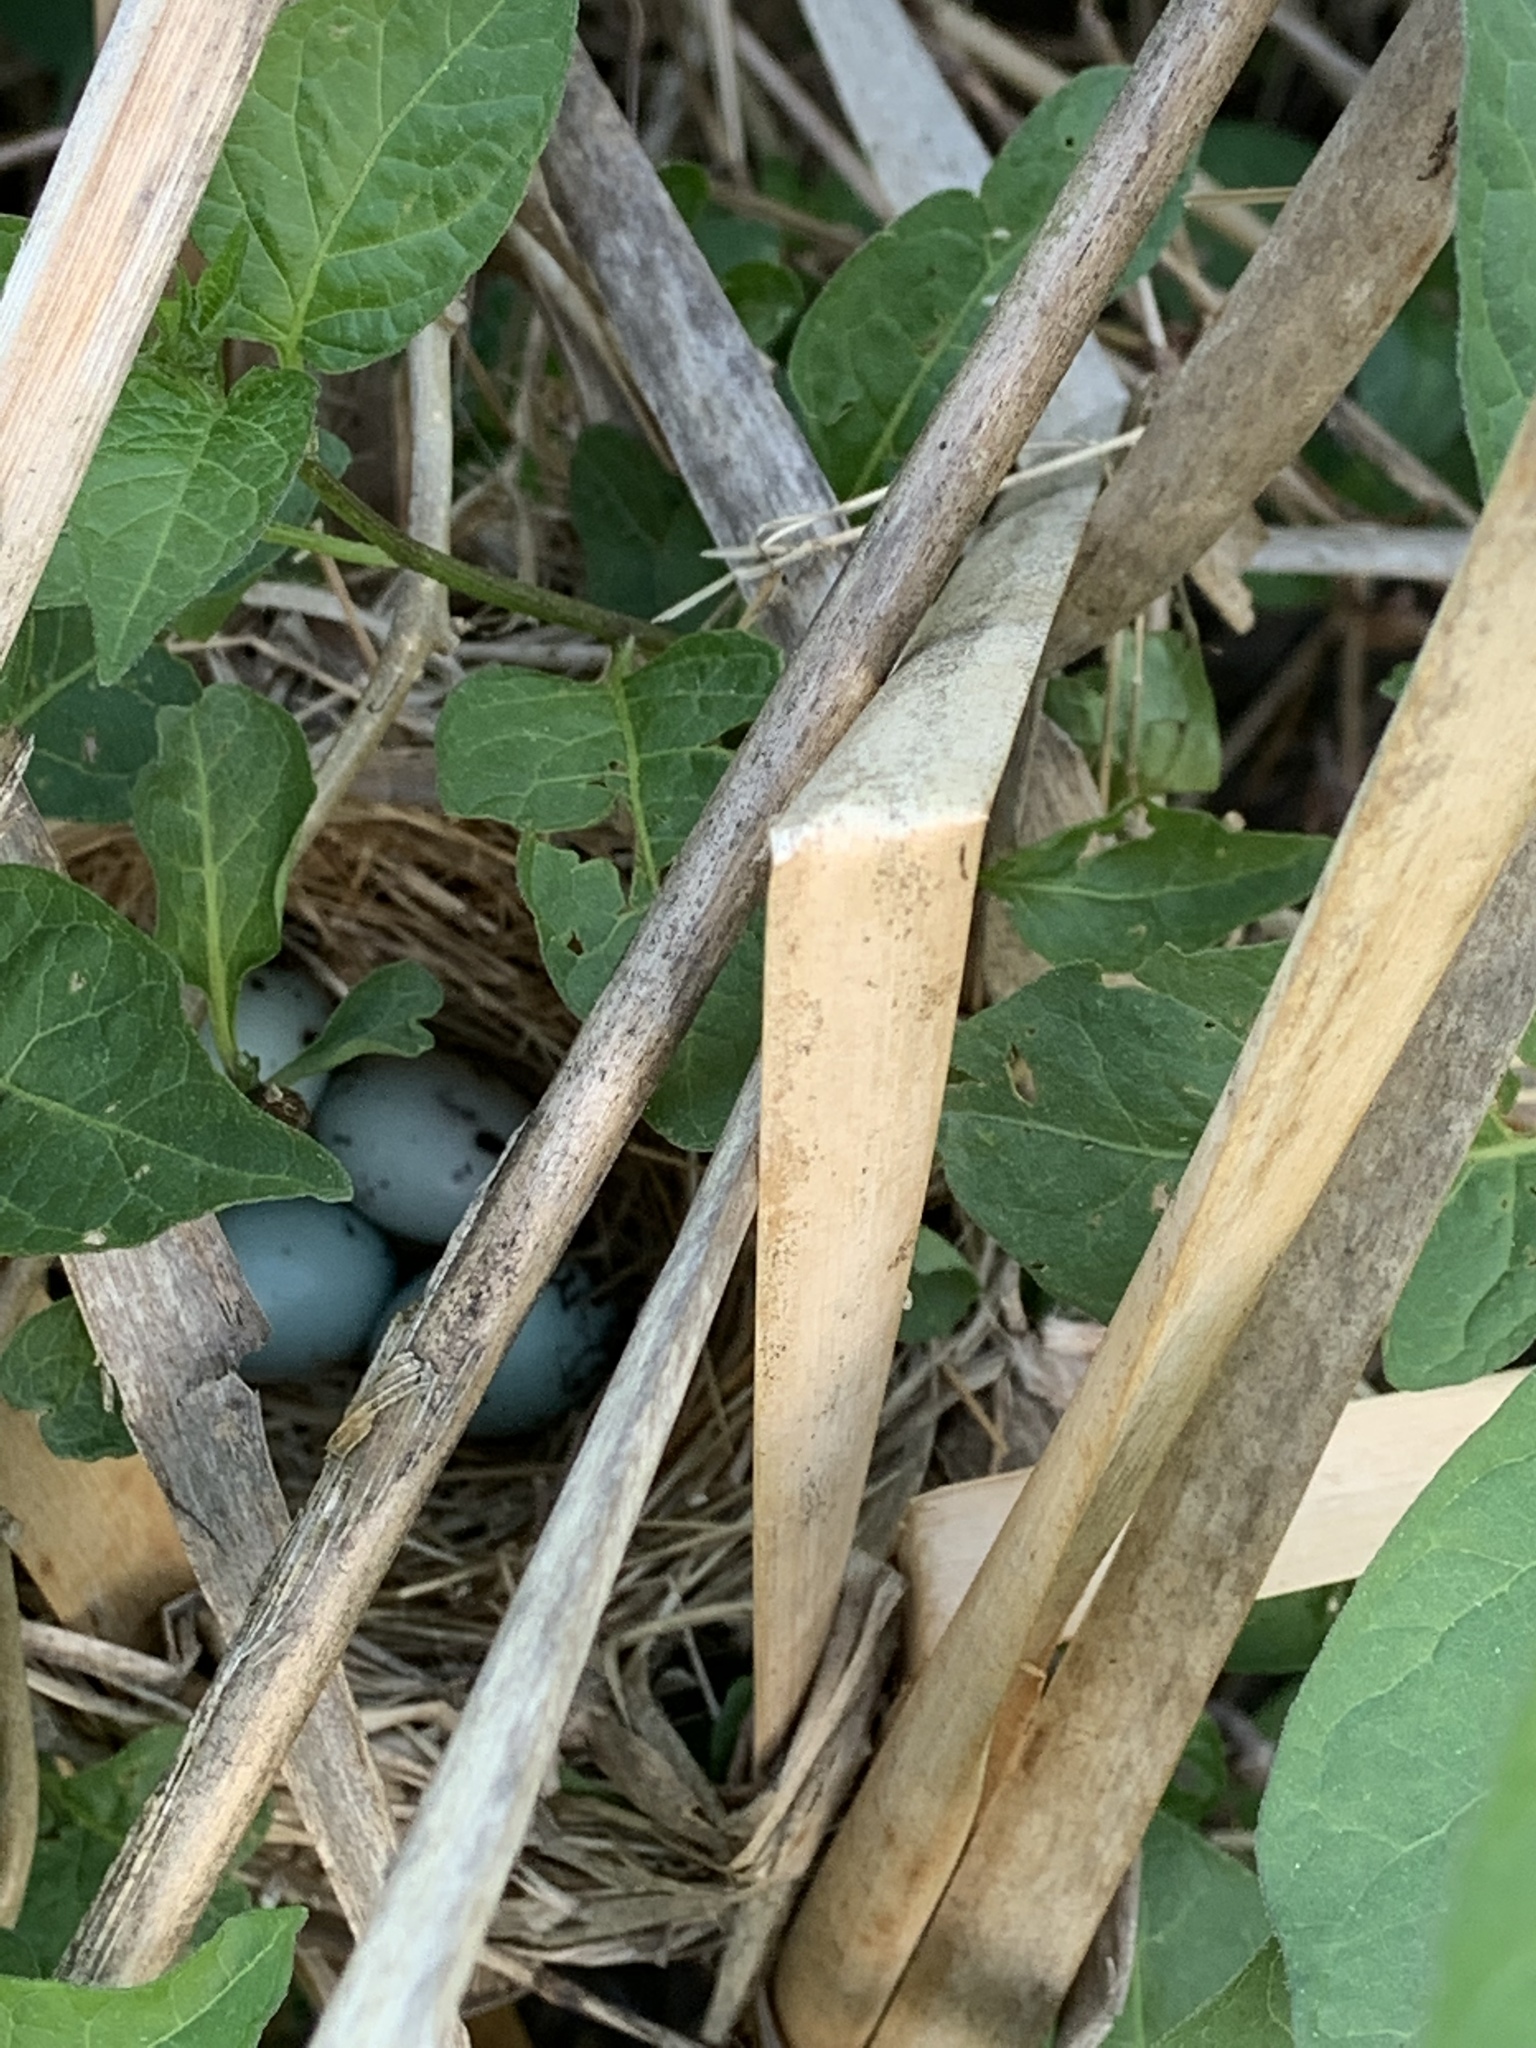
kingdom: Animalia
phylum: Chordata
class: Aves
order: Passeriformes
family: Icteridae
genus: Agelaius
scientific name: Agelaius phoeniceus
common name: Red-winged blackbird
